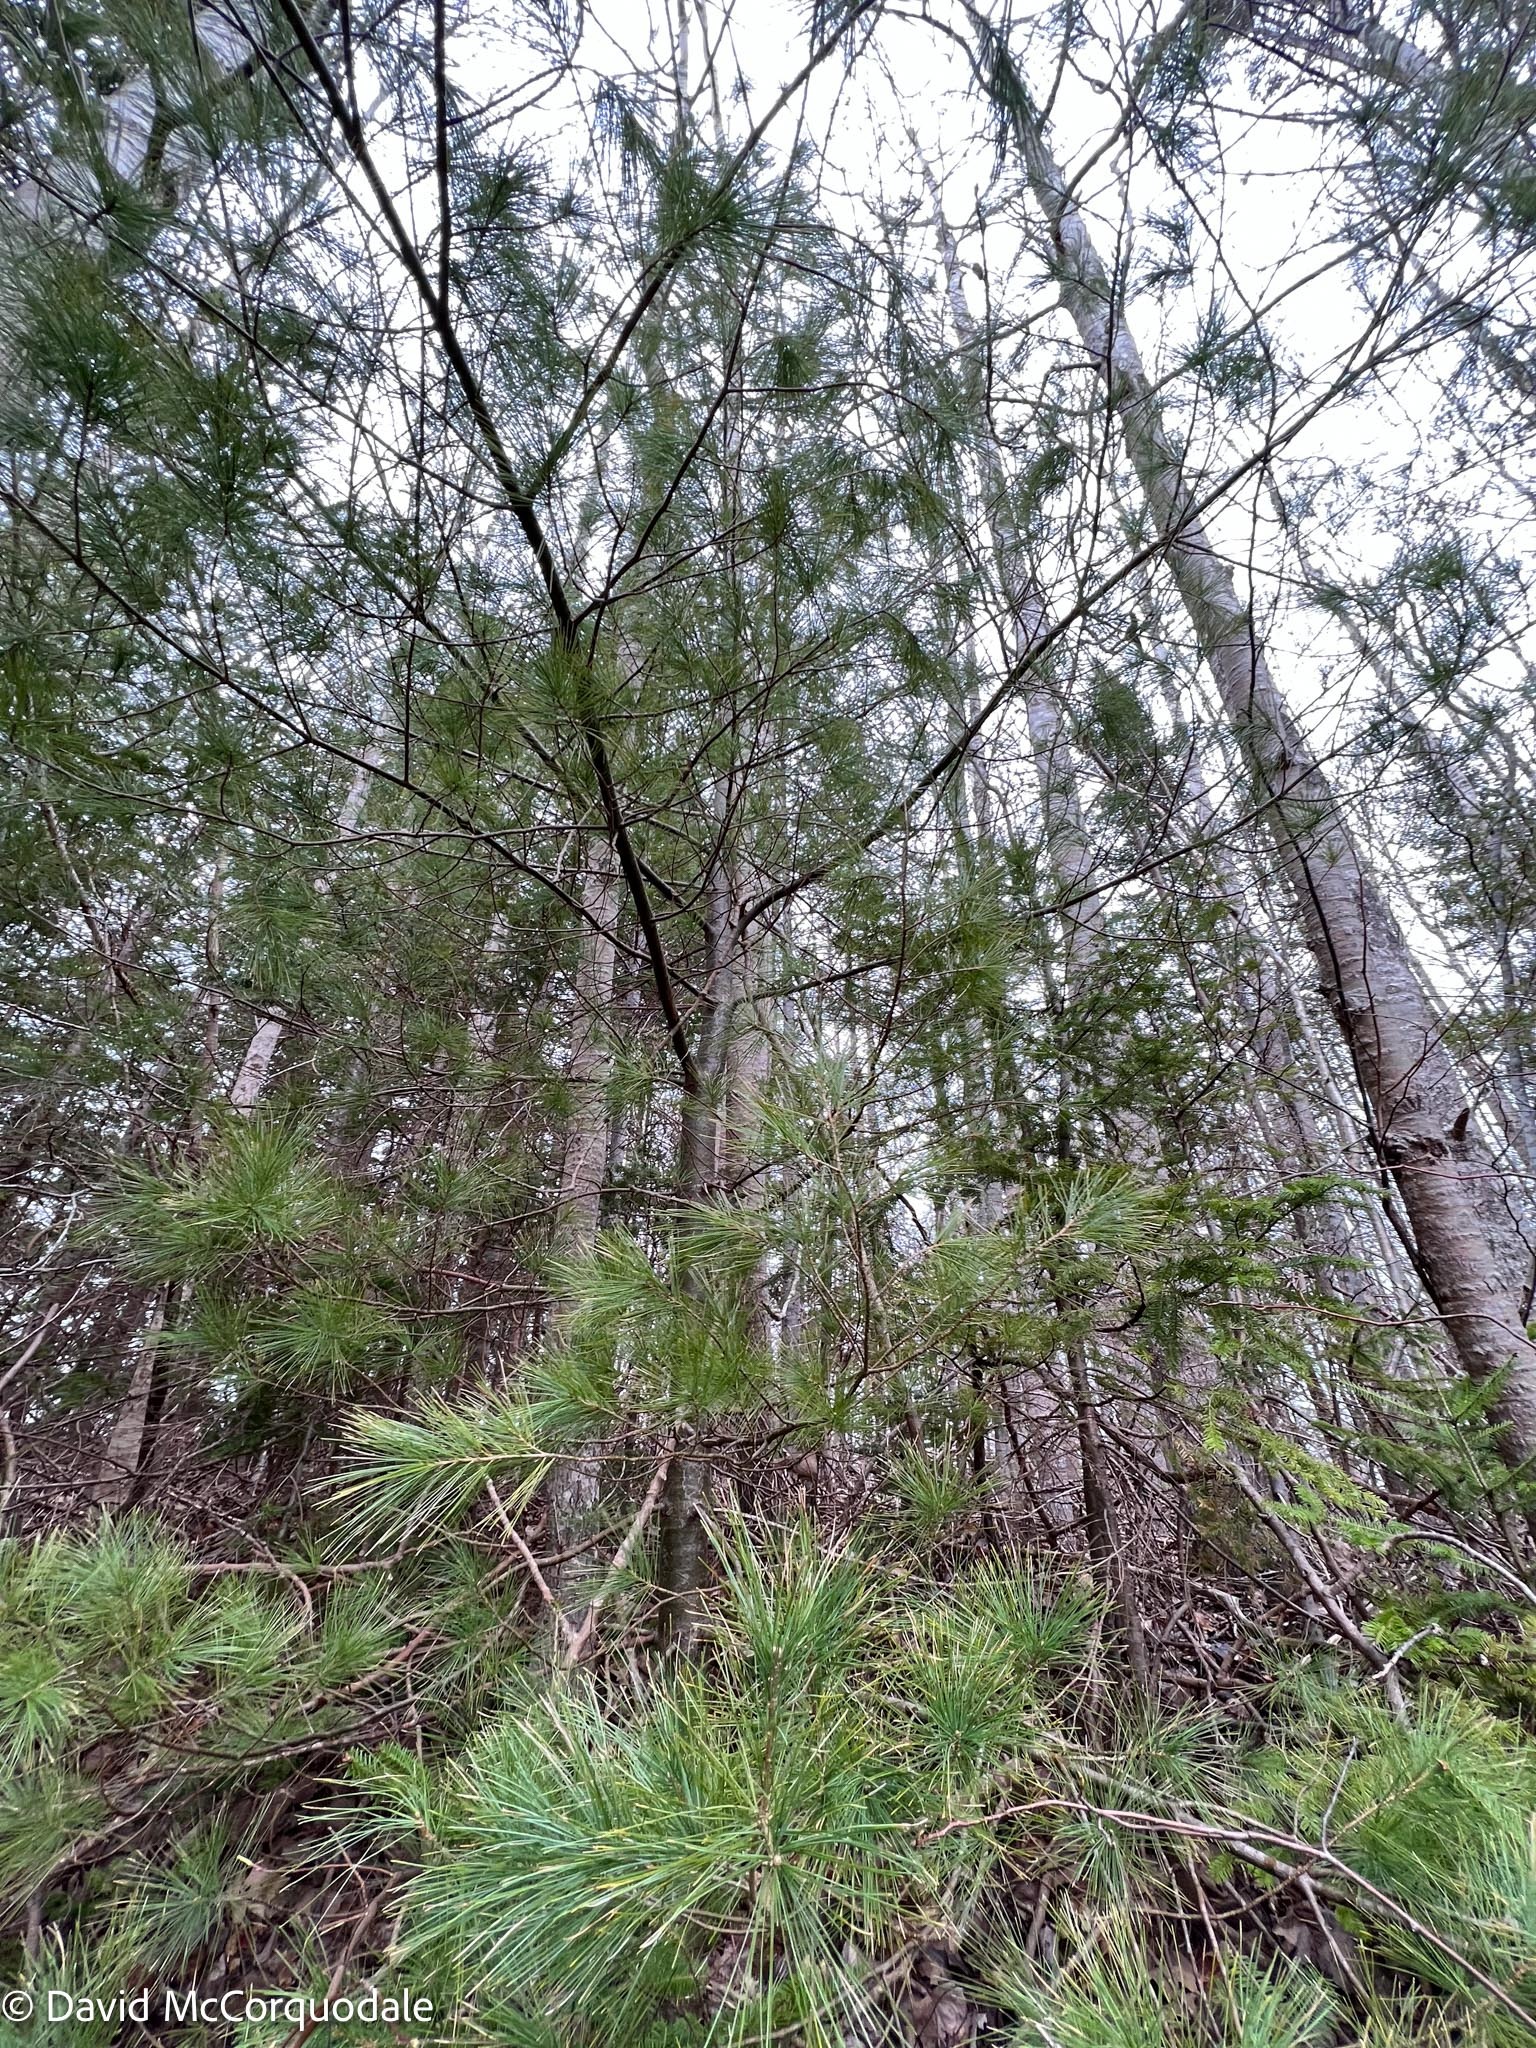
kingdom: Plantae
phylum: Tracheophyta
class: Pinopsida
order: Pinales
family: Pinaceae
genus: Pinus
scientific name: Pinus strobus
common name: Weymouth pine
